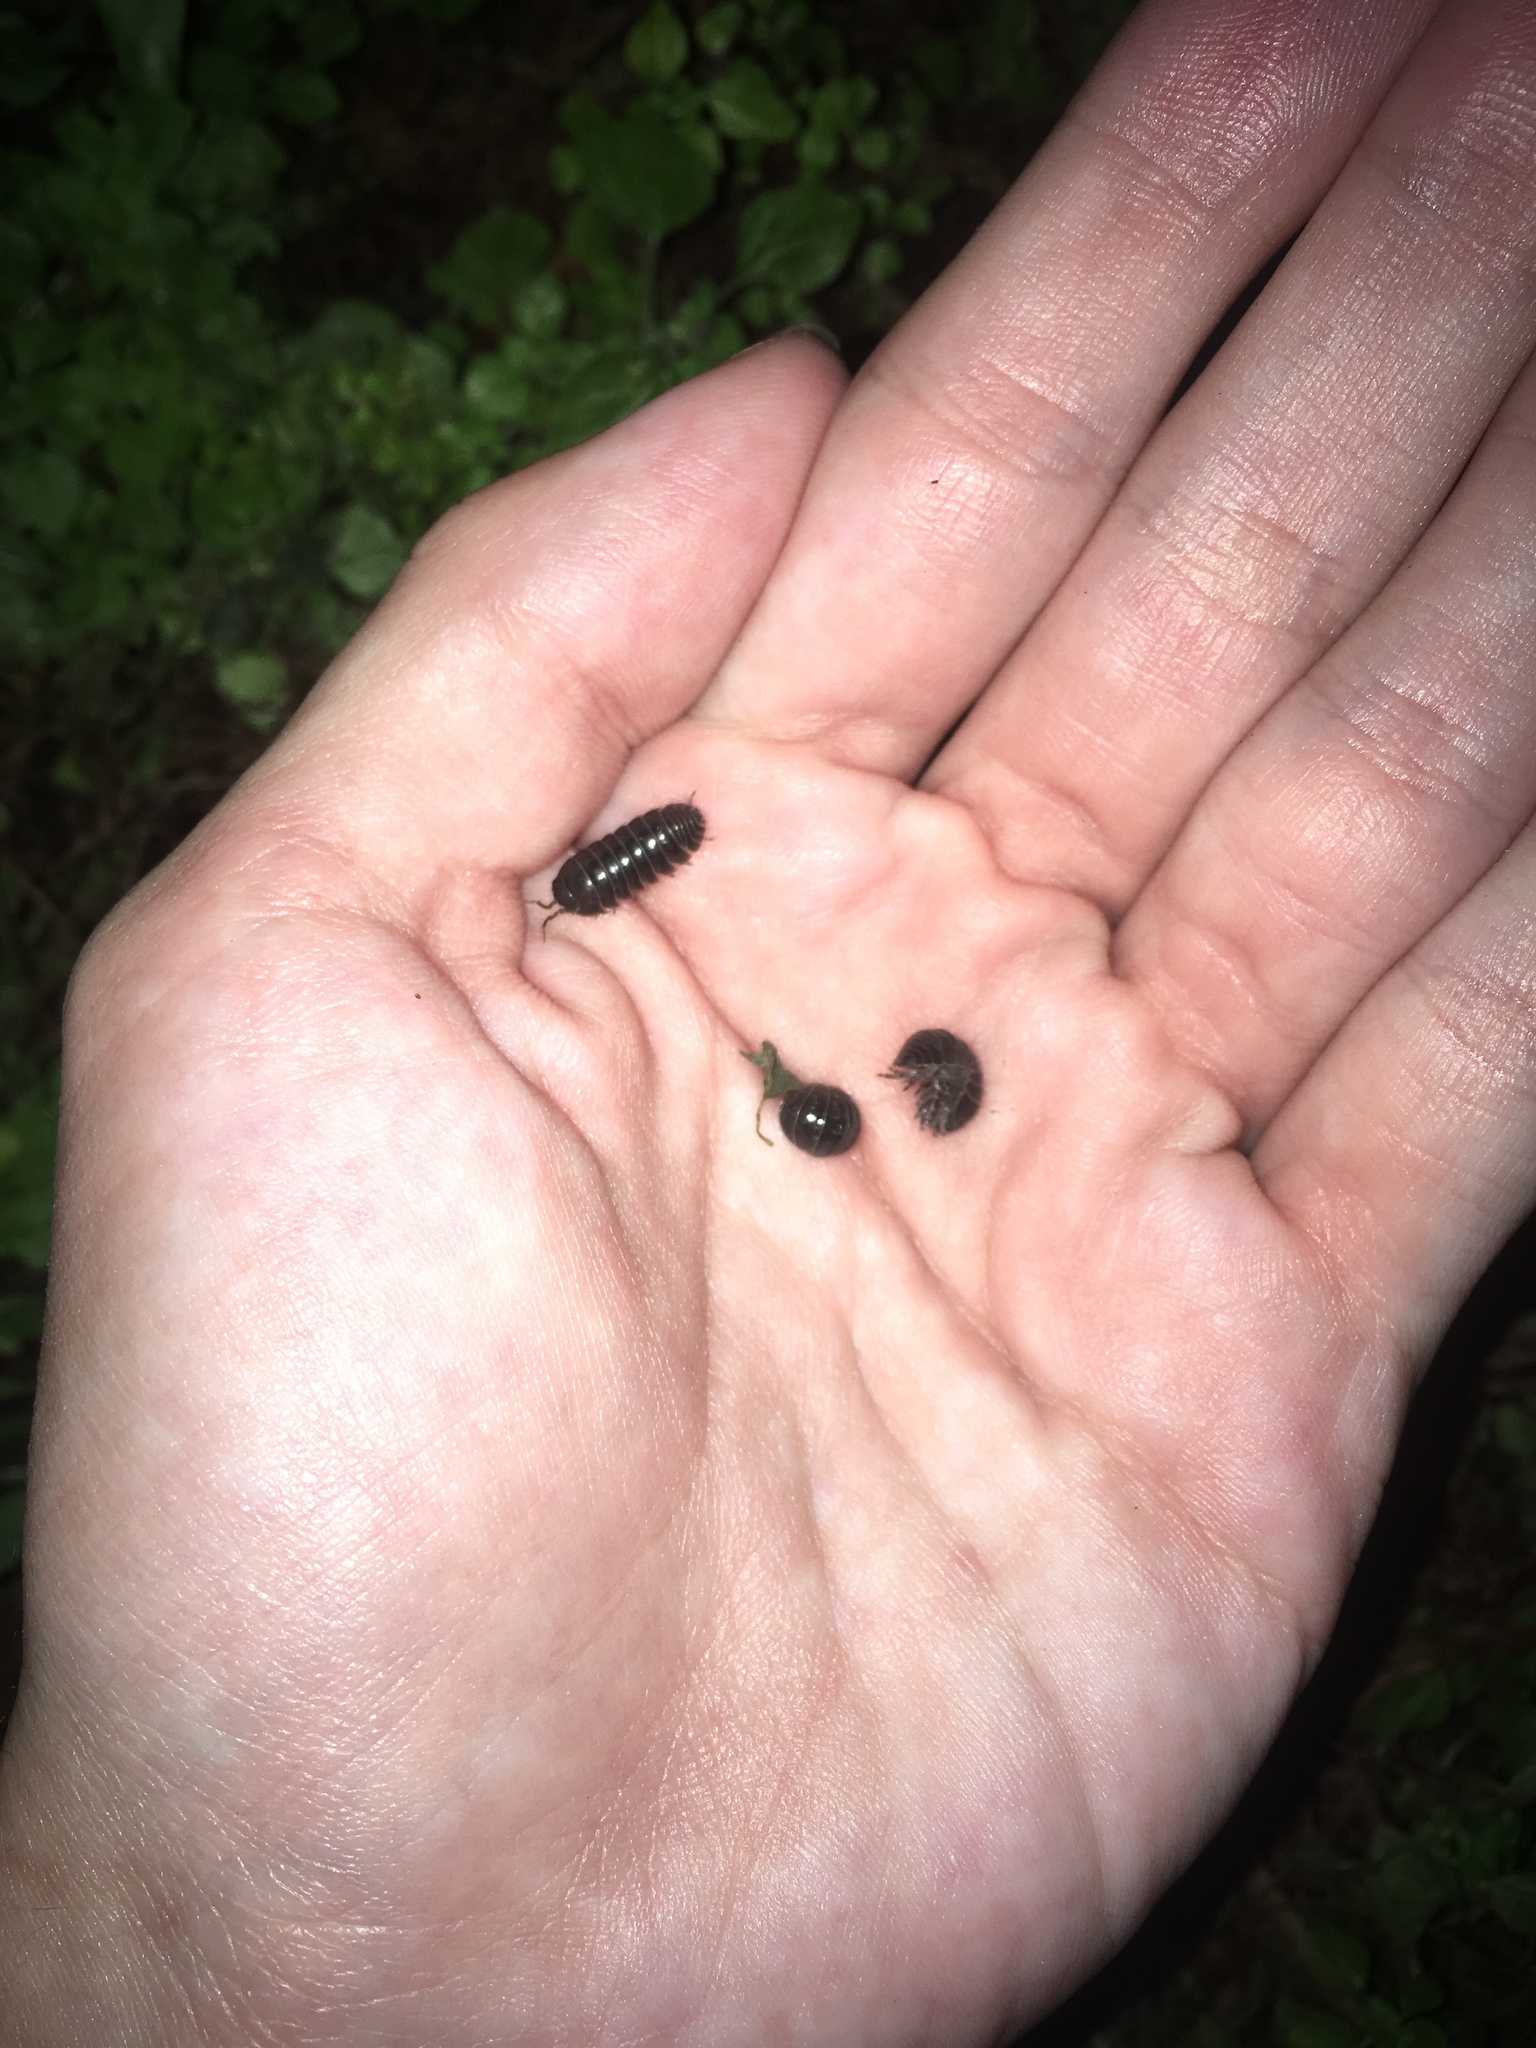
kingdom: Animalia
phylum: Arthropoda
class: Malacostraca
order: Isopoda
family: Armadillidiidae
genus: Armadillidium
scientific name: Armadillidium vulgare
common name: Common pill woodlouse
